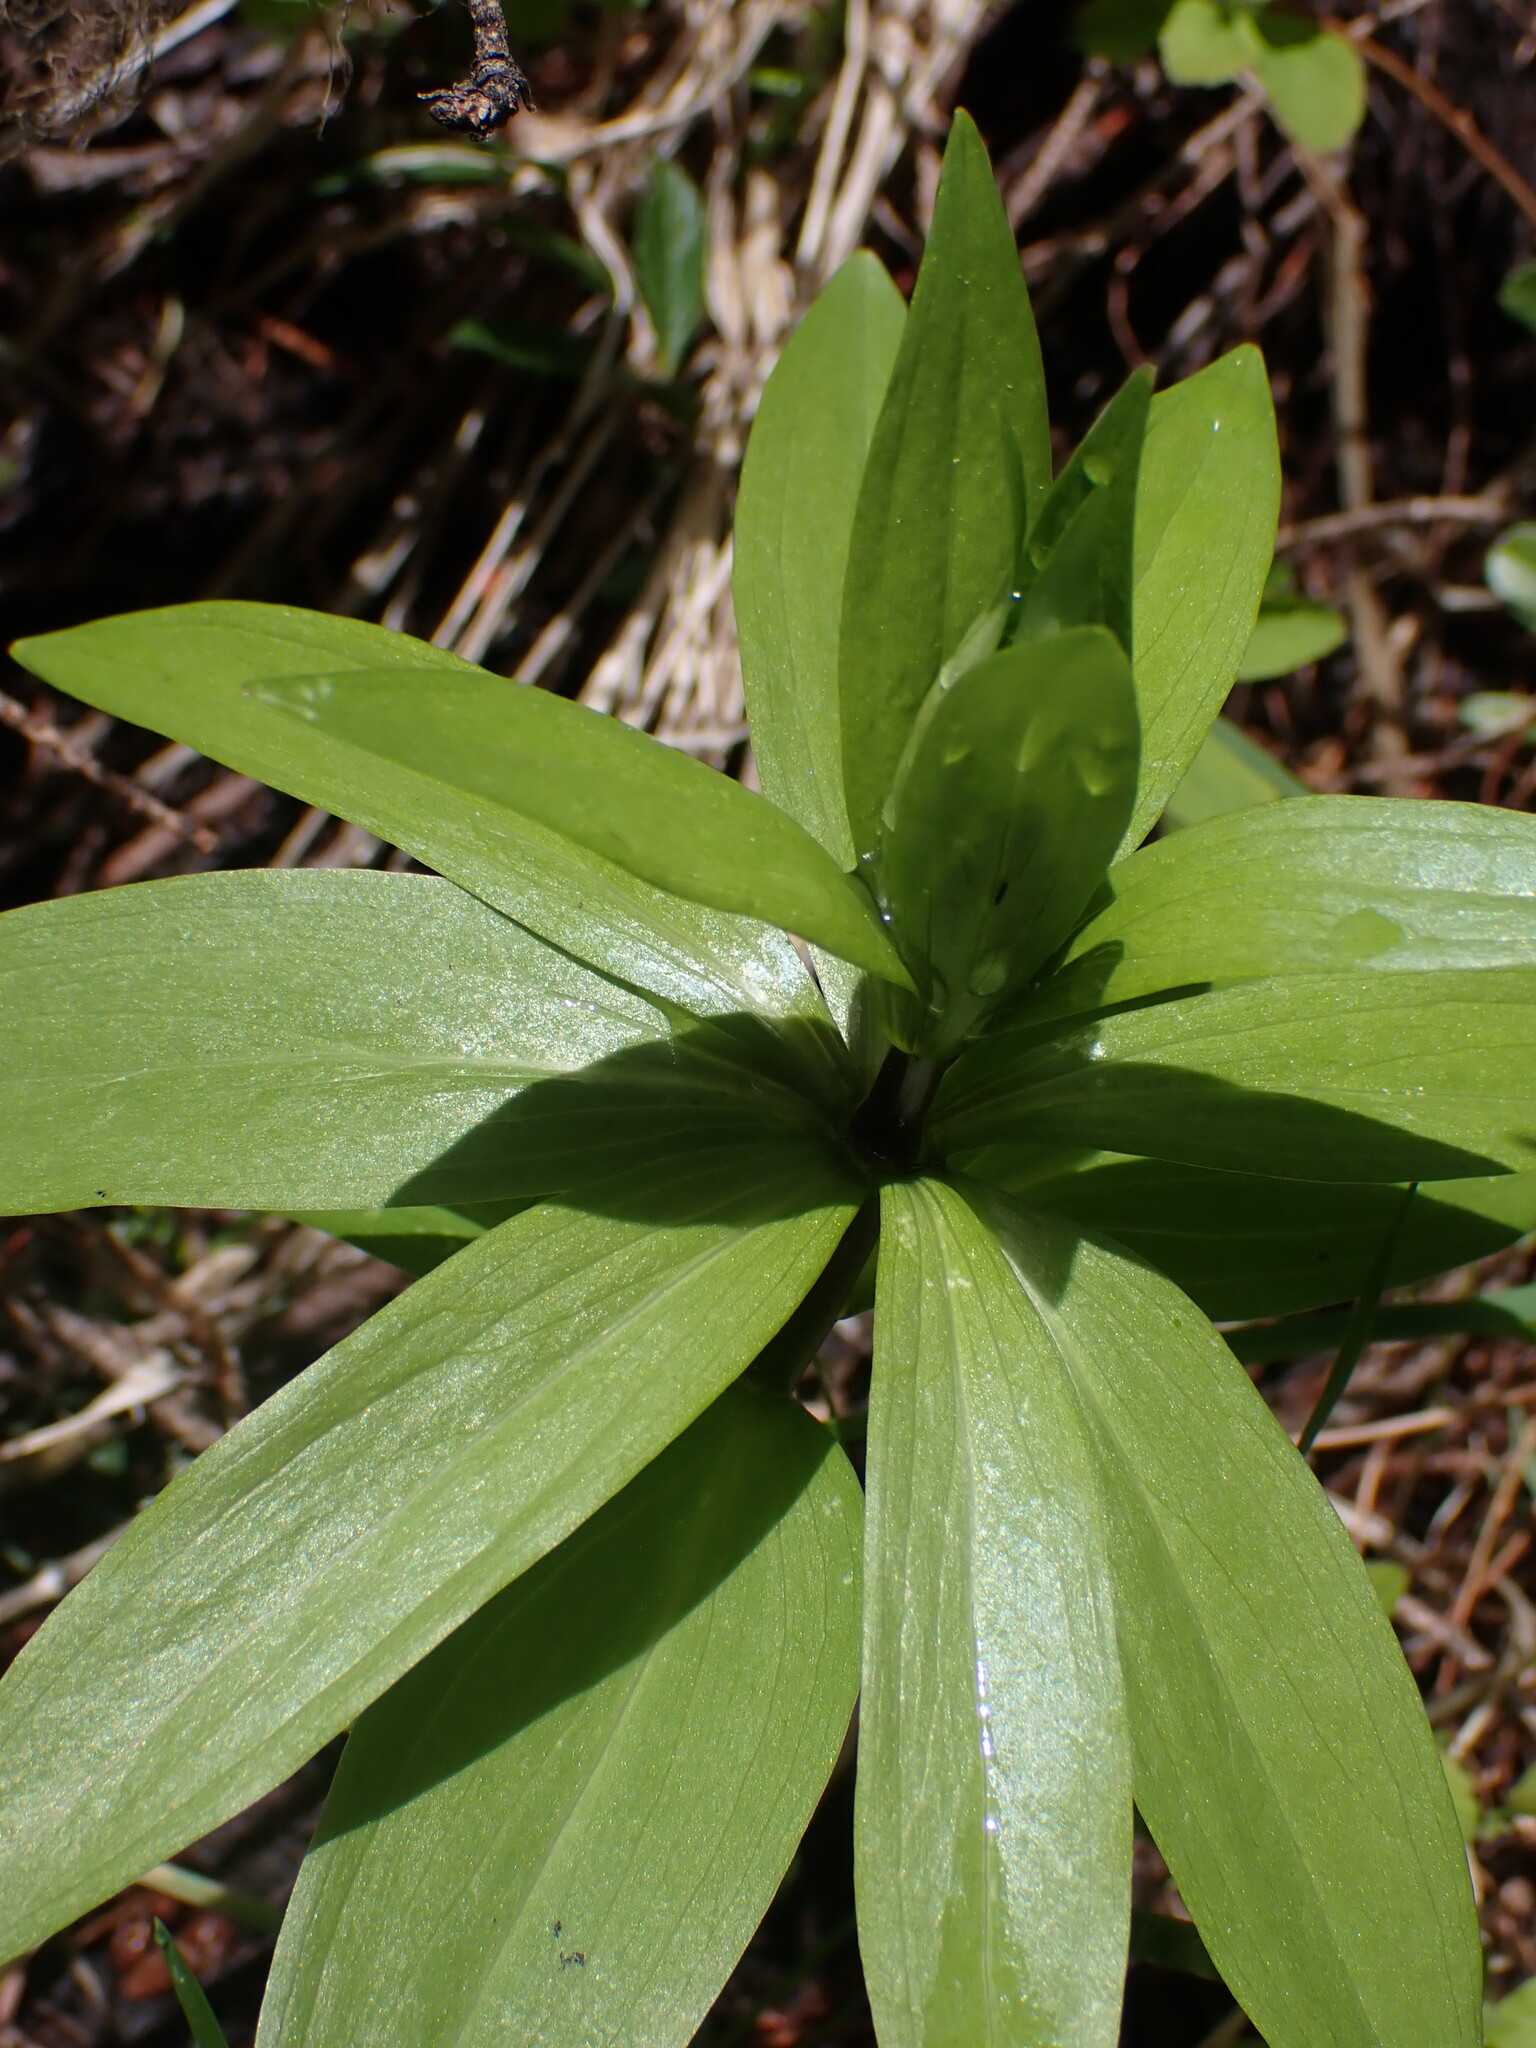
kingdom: Plantae
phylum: Tracheophyta
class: Liliopsida
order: Liliales
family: Liliaceae
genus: Lilium
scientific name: Lilium columbianum
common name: Columbia lily
